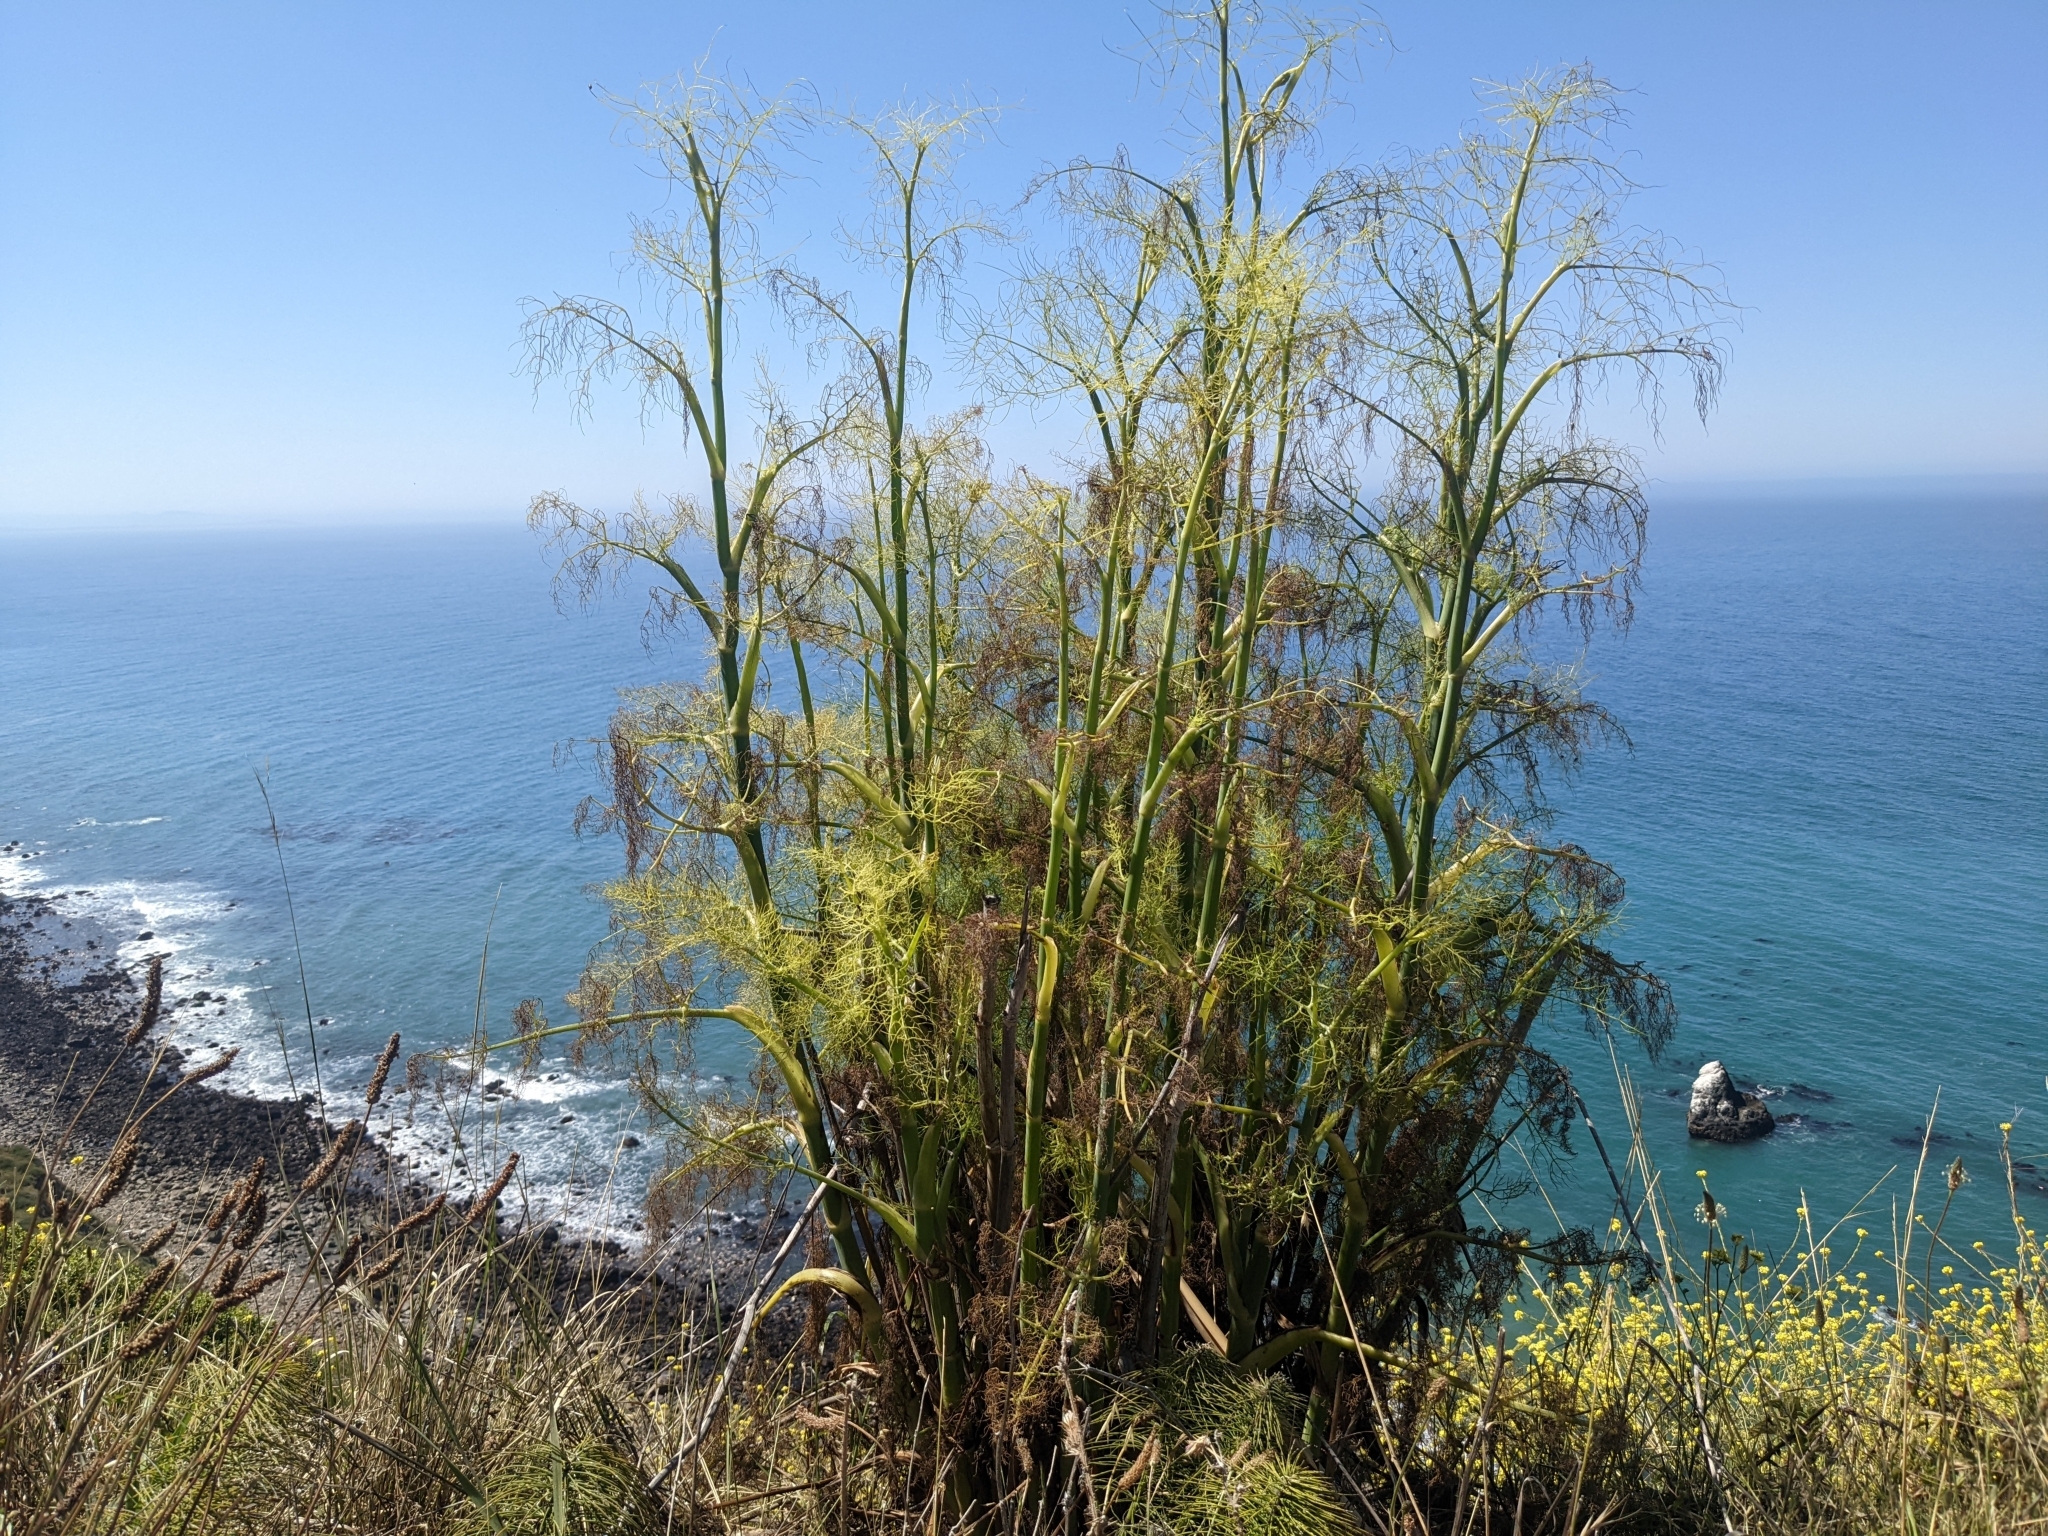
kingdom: Plantae
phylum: Tracheophyta
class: Magnoliopsida
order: Apiales
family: Apiaceae
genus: Foeniculum
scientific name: Foeniculum vulgare
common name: Fennel
